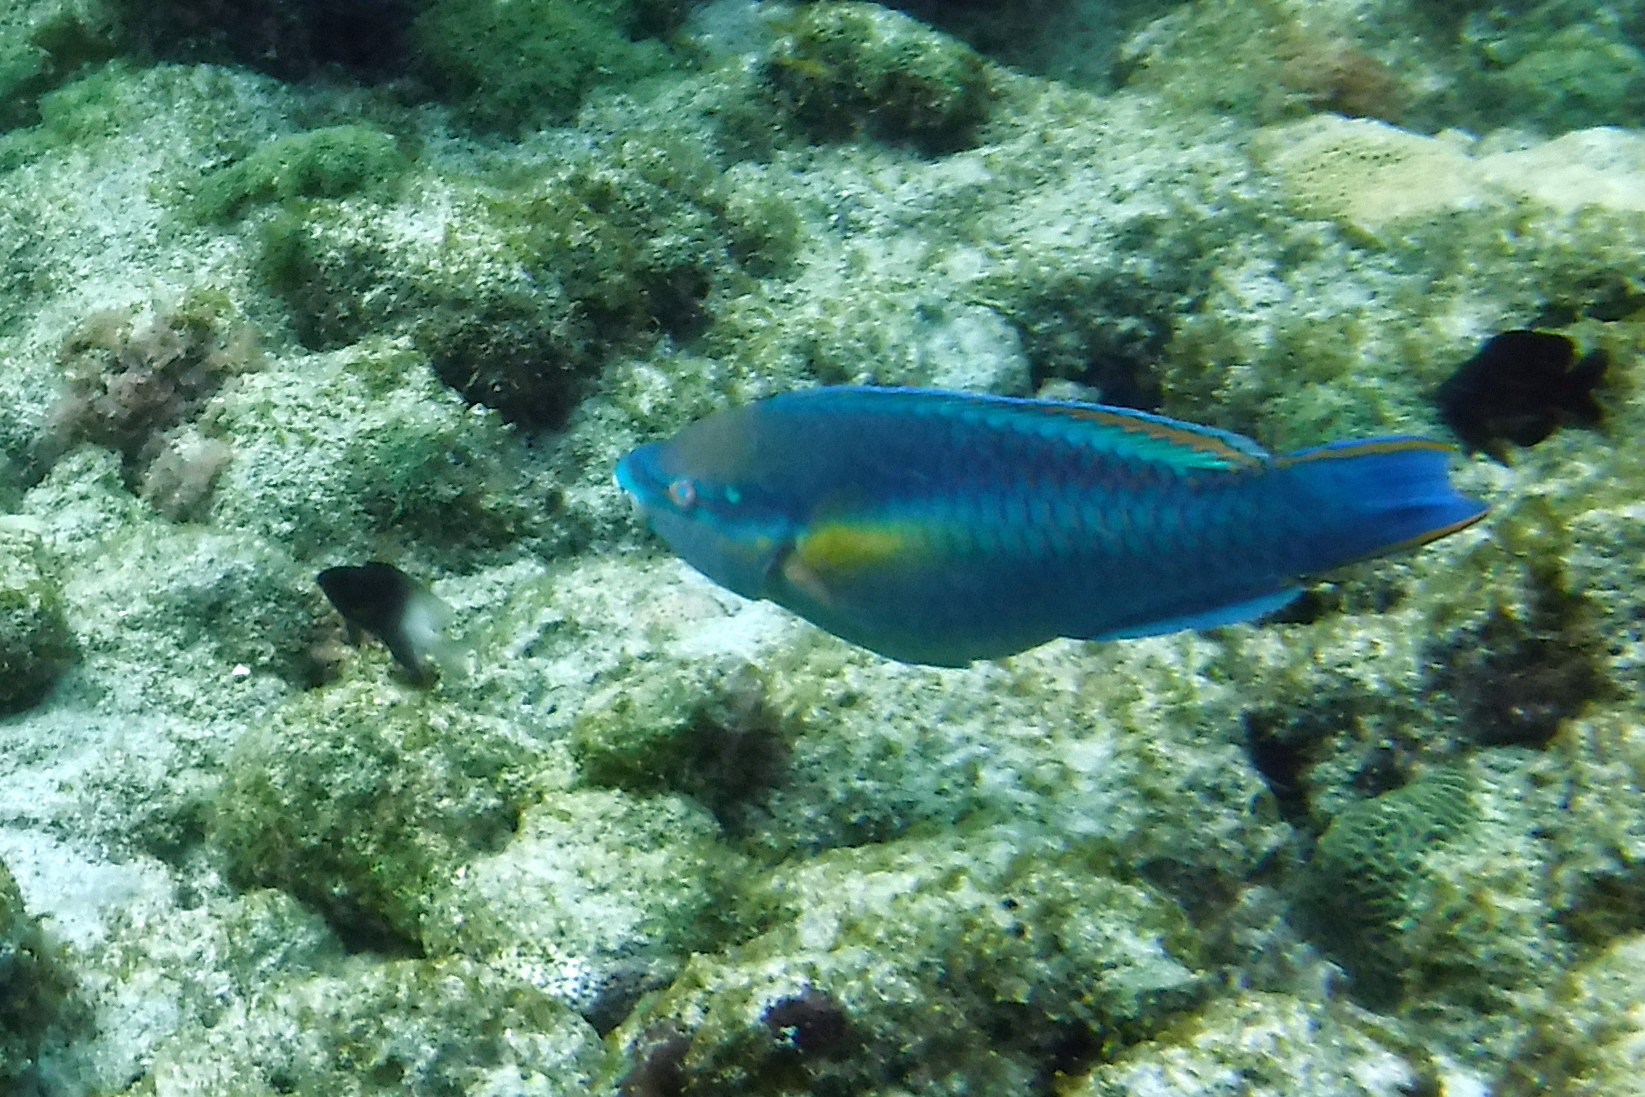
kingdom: Animalia
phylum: Chordata
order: Perciformes
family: Scaridae
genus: Scarus
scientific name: Scarus taeniopterus
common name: Princess parrotfish
